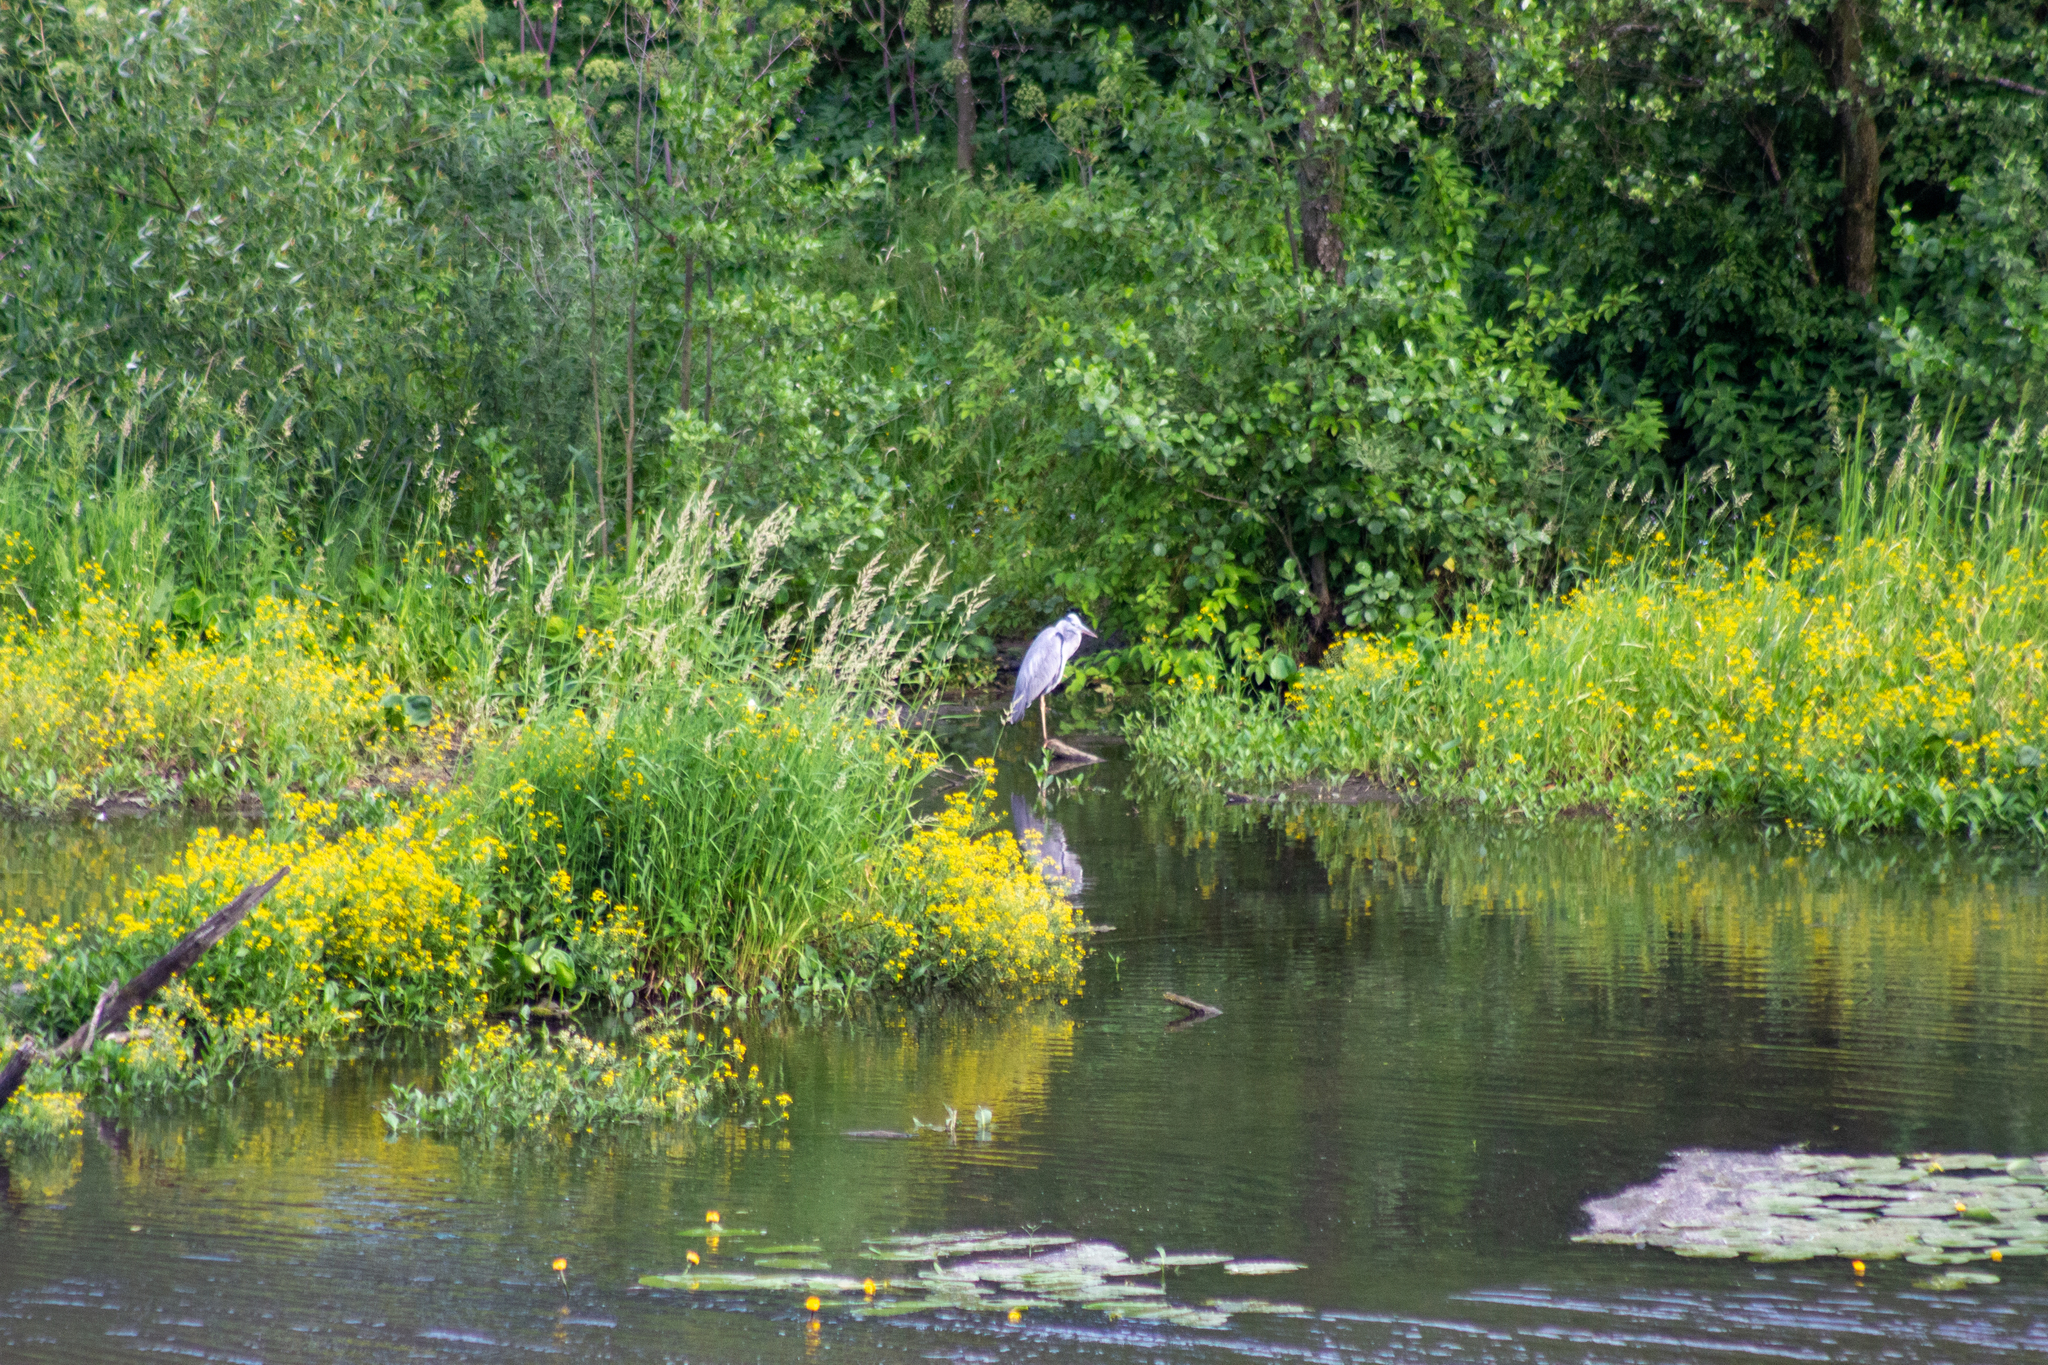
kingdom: Animalia
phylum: Chordata
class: Aves
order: Pelecaniformes
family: Ardeidae
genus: Ardea
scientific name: Ardea cinerea
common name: Grey heron
